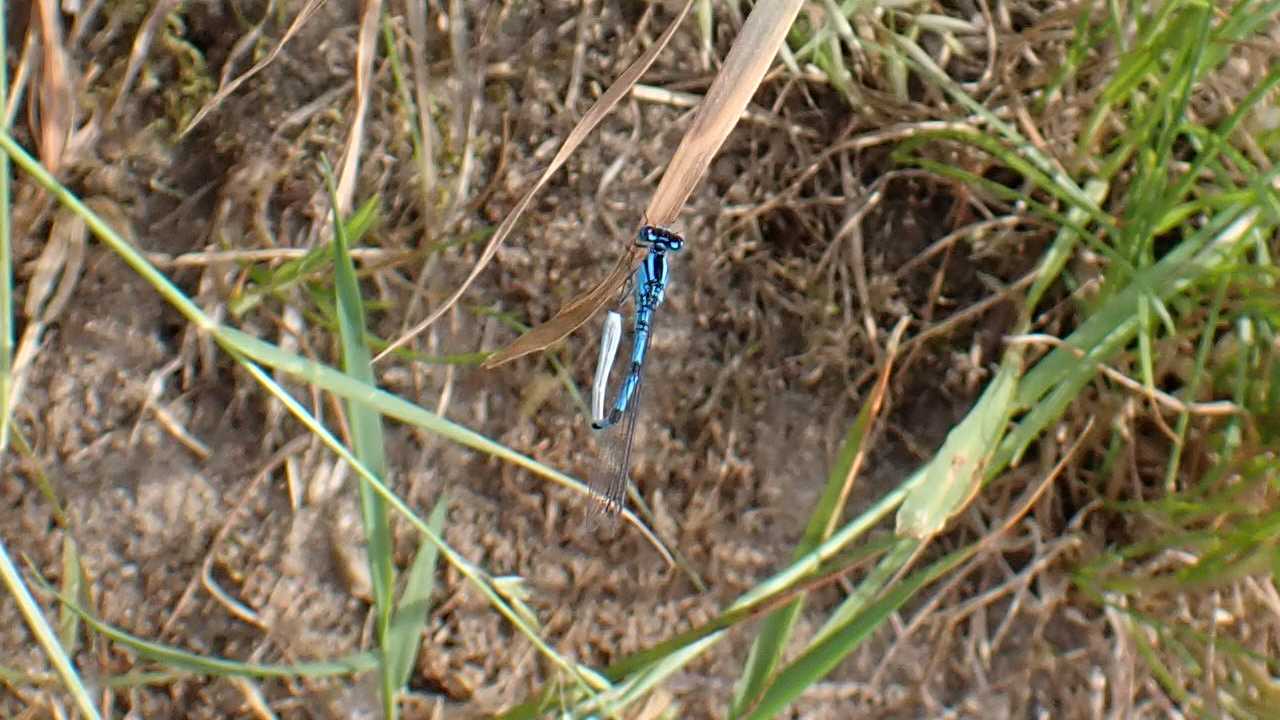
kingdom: Animalia
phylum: Arthropoda
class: Insecta
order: Odonata
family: Coenagrionidae
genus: Enallagma
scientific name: Enallagma cyathigerum
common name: Common blue damselfly
